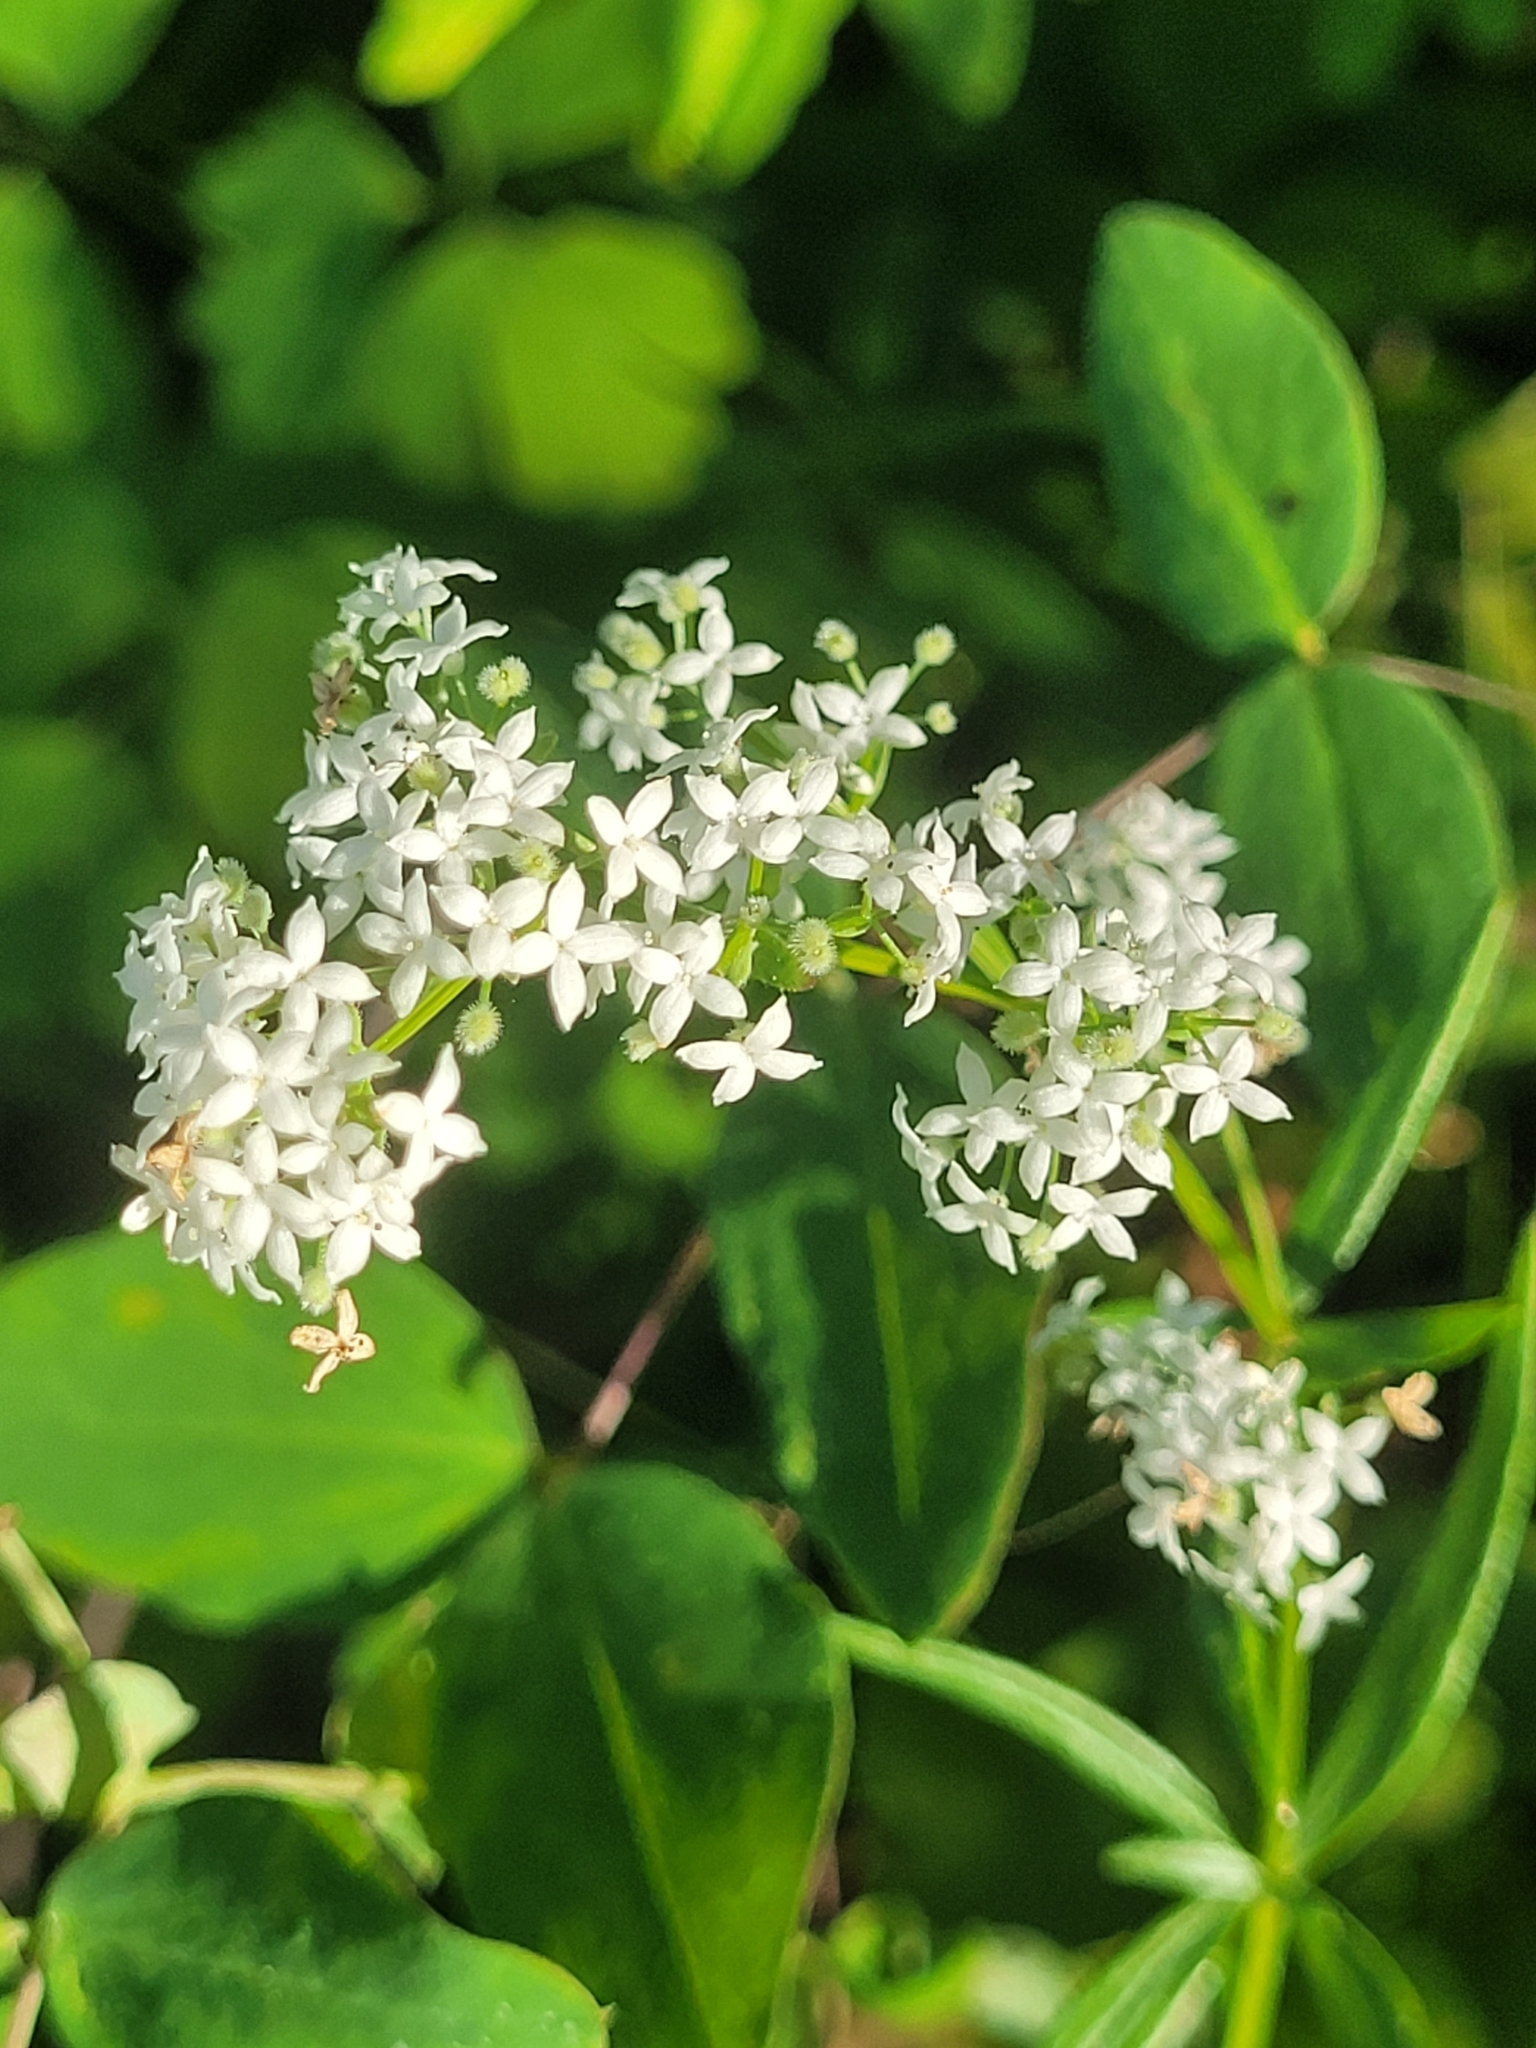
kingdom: Plantae
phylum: Tracheophyta
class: Magnoliopsida
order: Gentianales
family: Rubiaceae
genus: Galium
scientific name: Galium boreale
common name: Northern bedstraw
